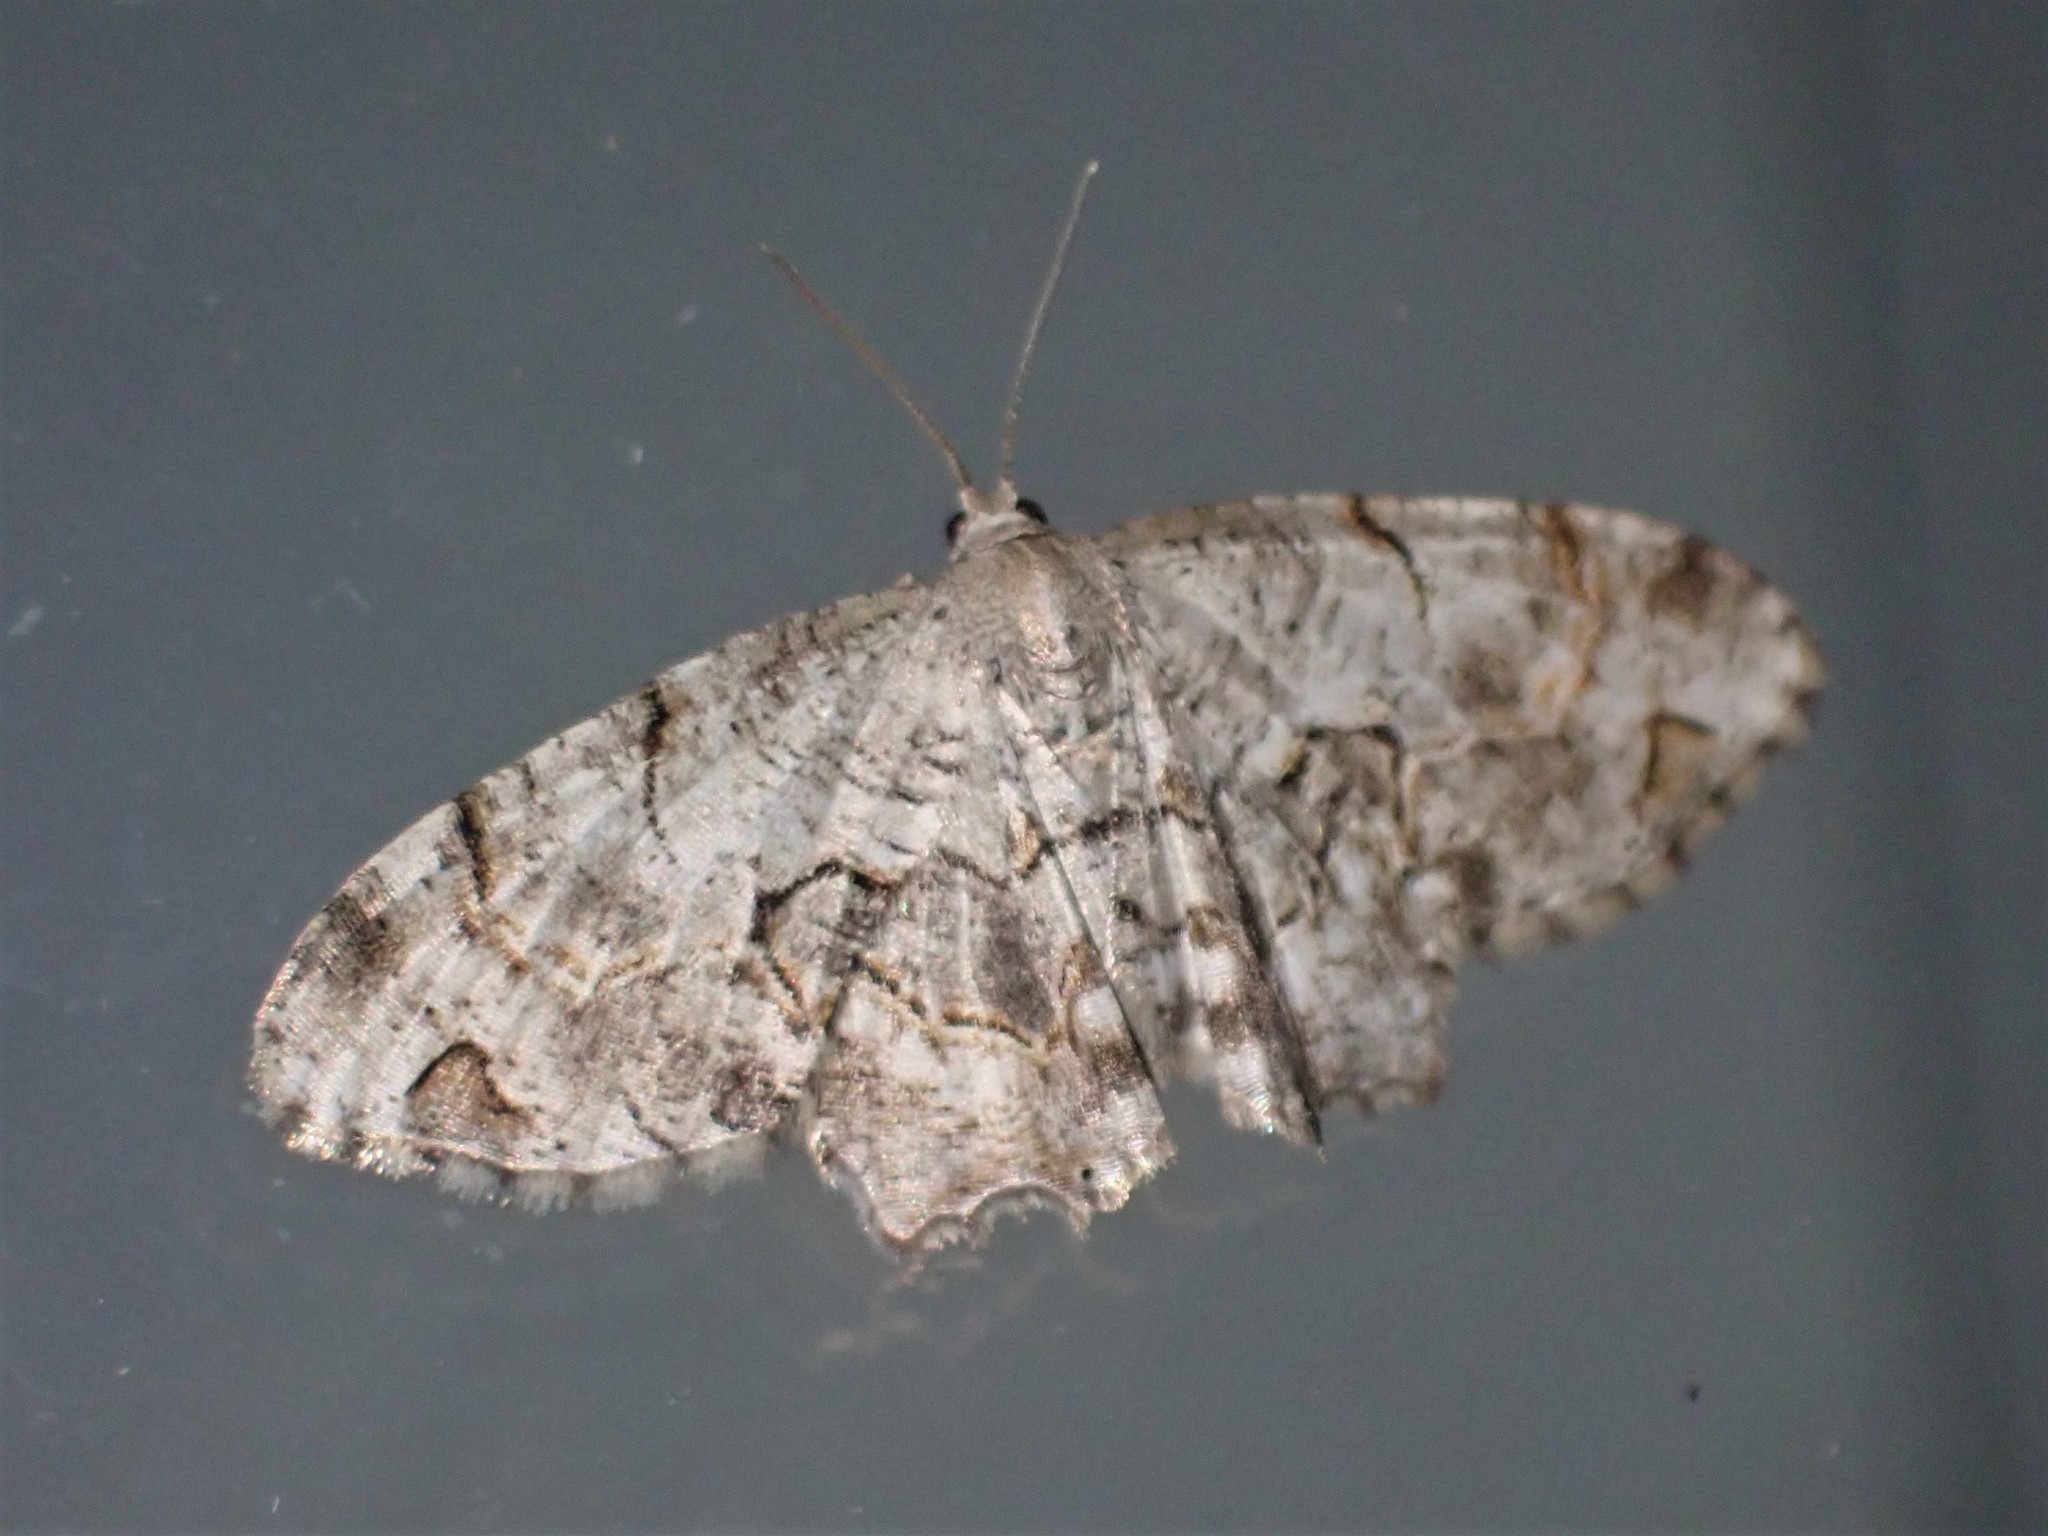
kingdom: Animalia
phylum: Arthropoda
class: Insecta
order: Lepidoptera
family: Uraniidae
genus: Epiplema
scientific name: Epiplema Callizzia amorata
